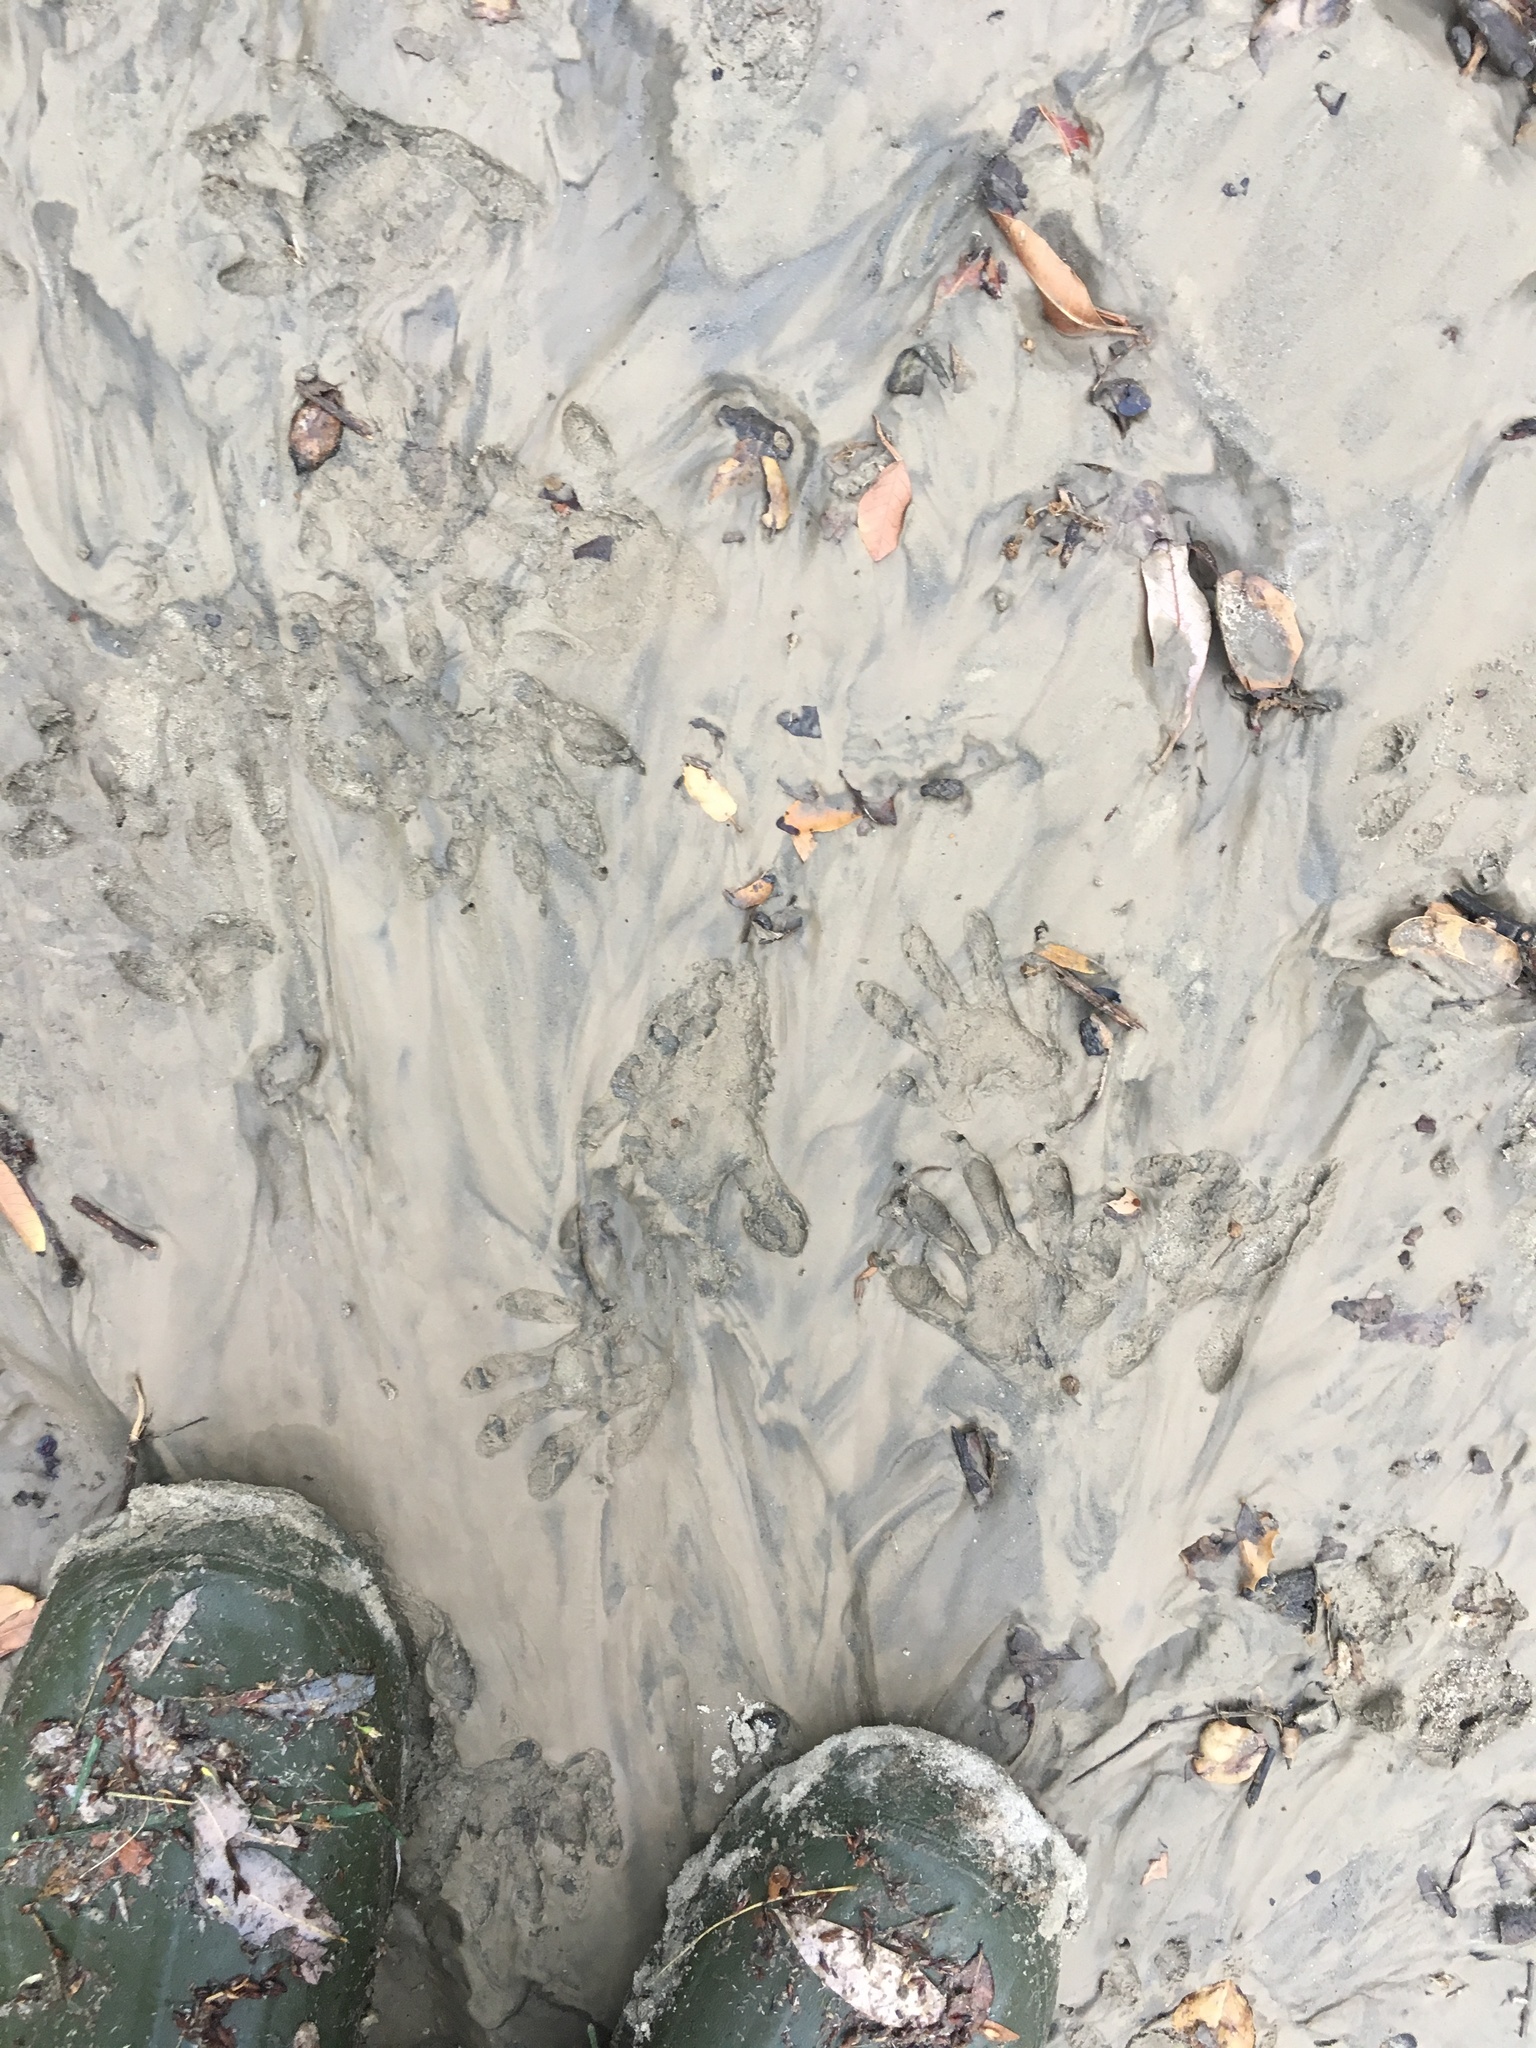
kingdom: Animalia
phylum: Chordata
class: Mammalia
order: Carnivora
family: Procyonidae
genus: Procyon
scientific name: Procyon lotor
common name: Raccoon
